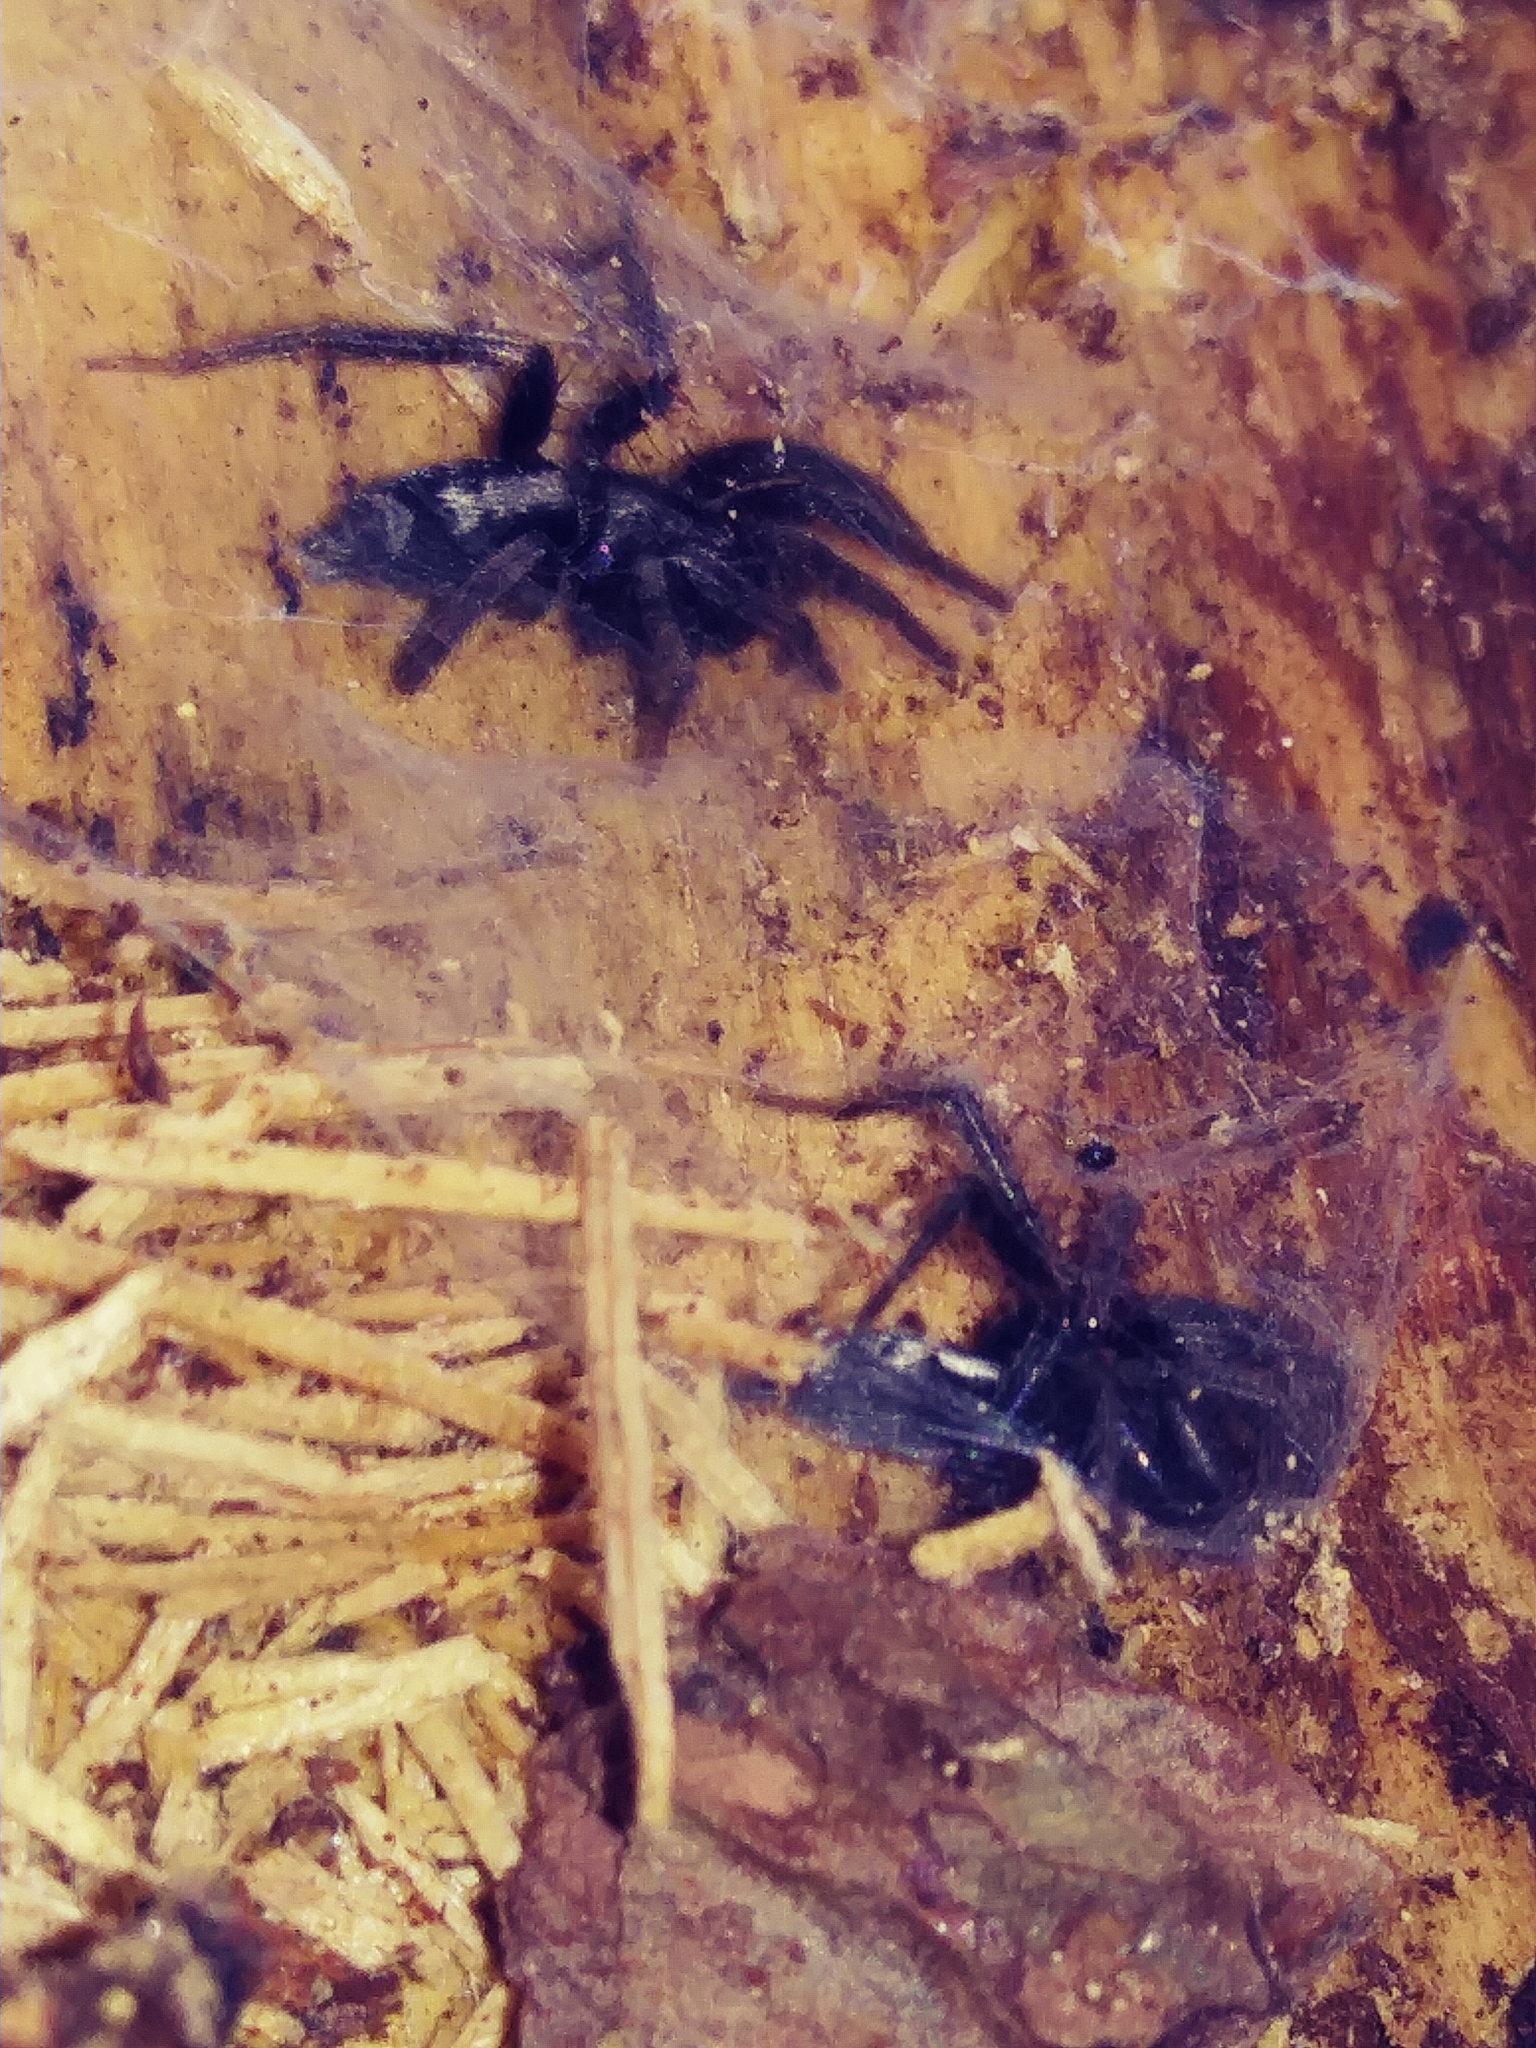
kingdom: Animalia
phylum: Arthropoda
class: Arachnida
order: Araneae
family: Gnaphosidae
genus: Herpyllus
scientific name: Herpyllus ecclesiasticus
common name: Eastern parson spider
